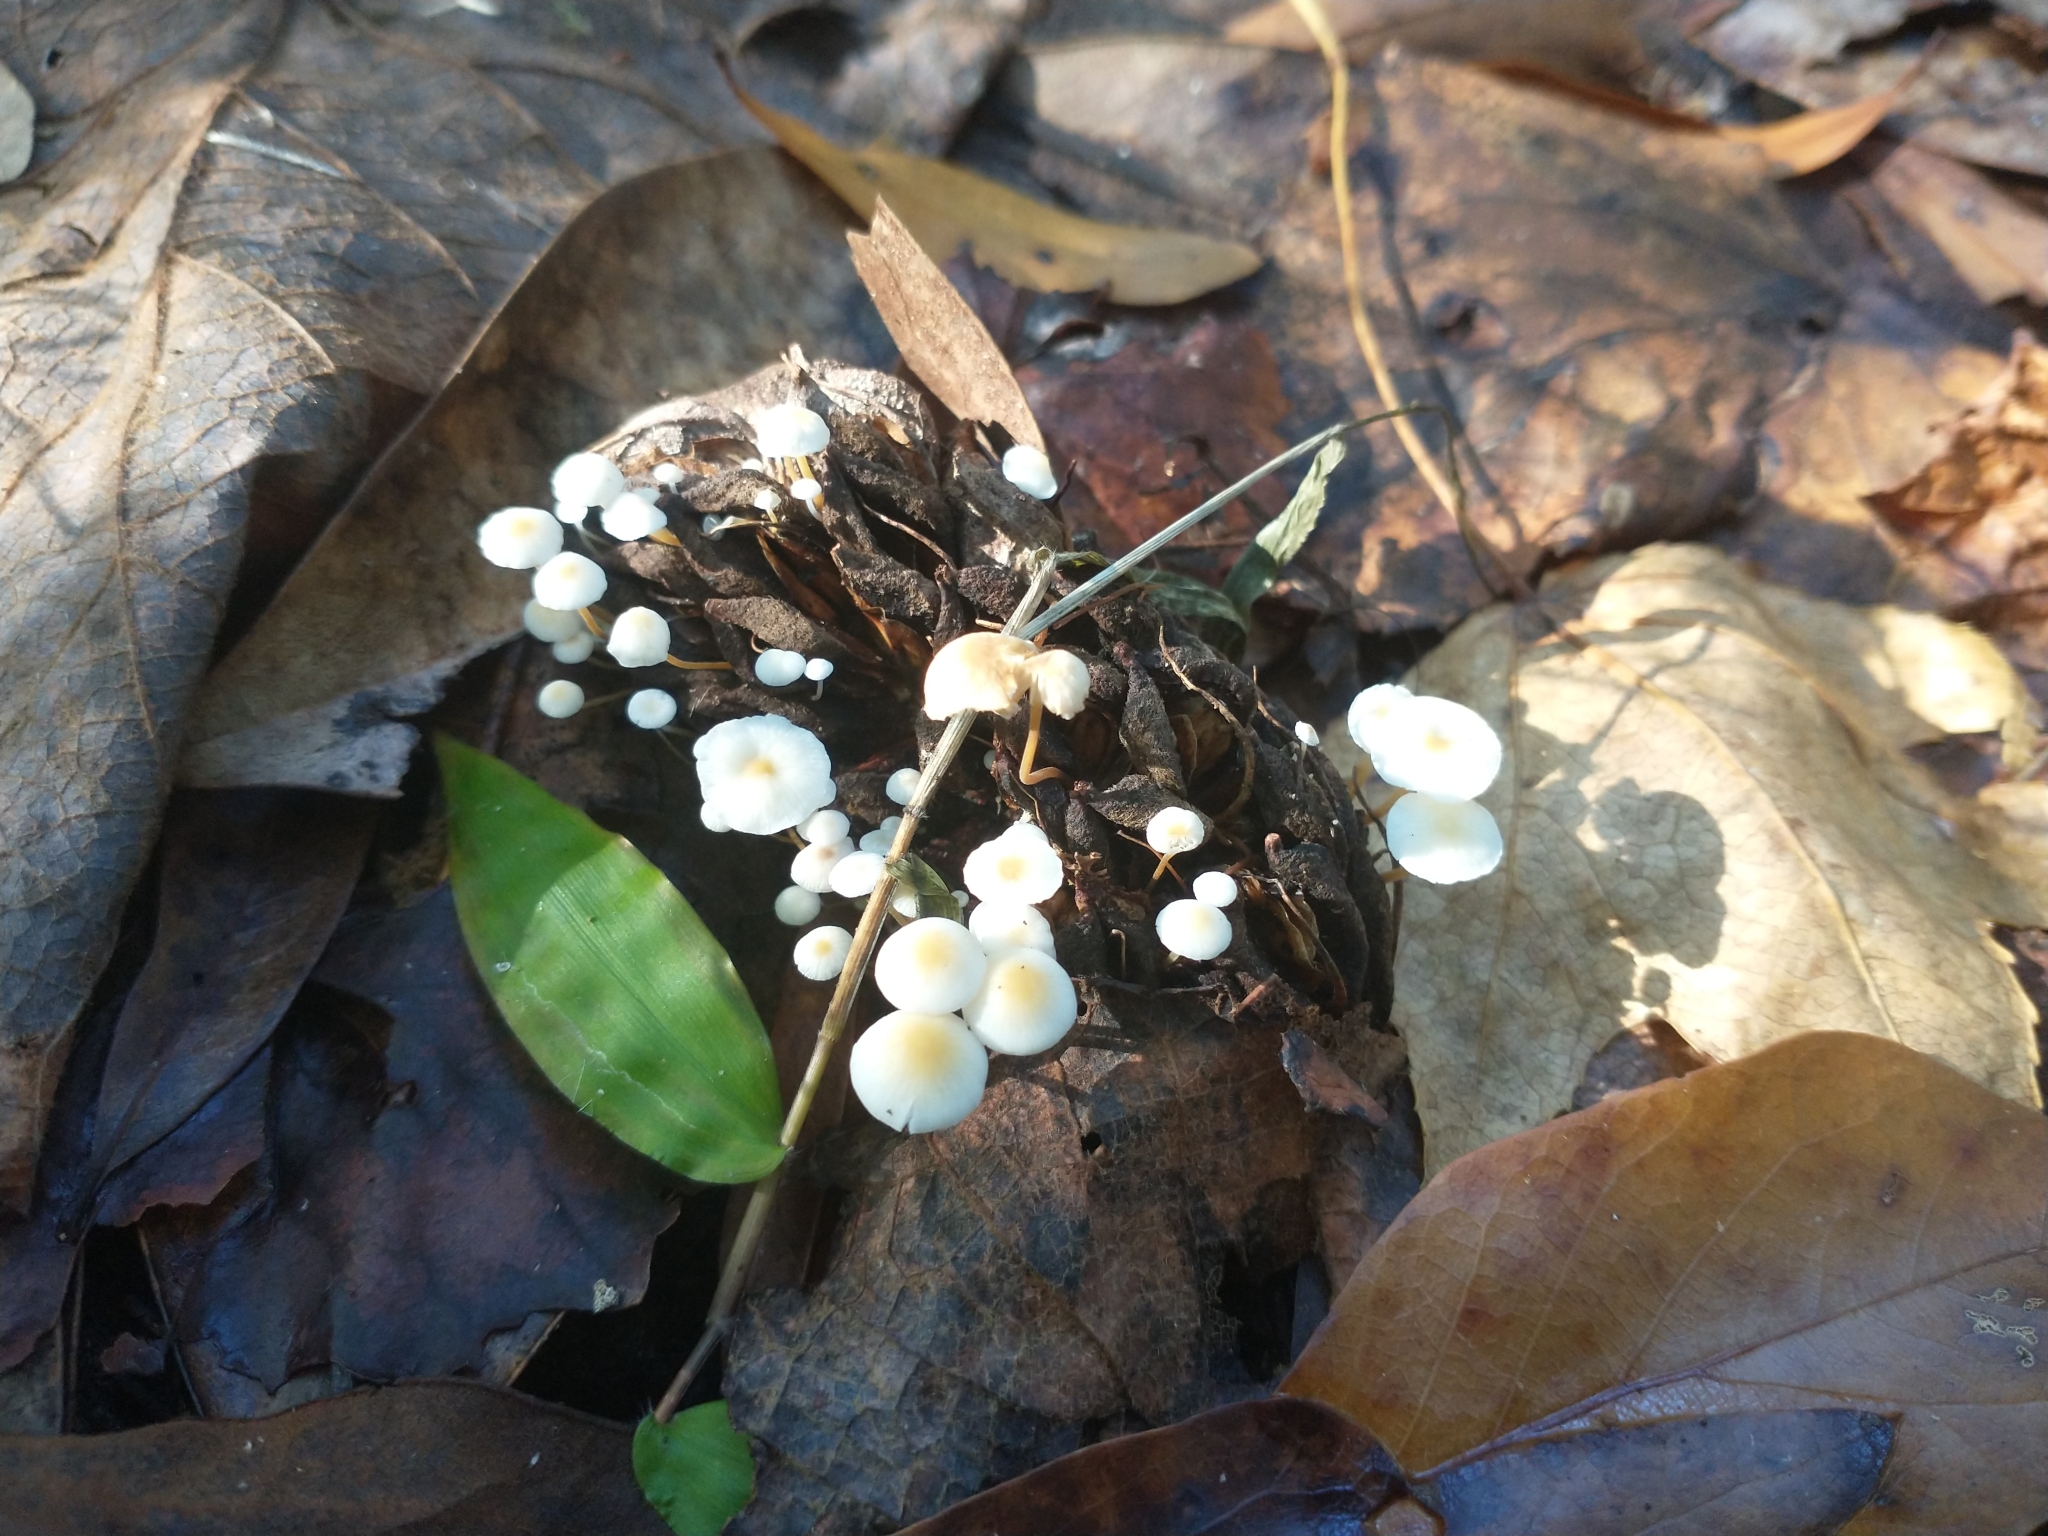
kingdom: Fungi
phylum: Basidiomycota
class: Agaricomycetes
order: Agaricales
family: Physalacriaceae
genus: Strobilurus
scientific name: Strobilurus conigenoides
